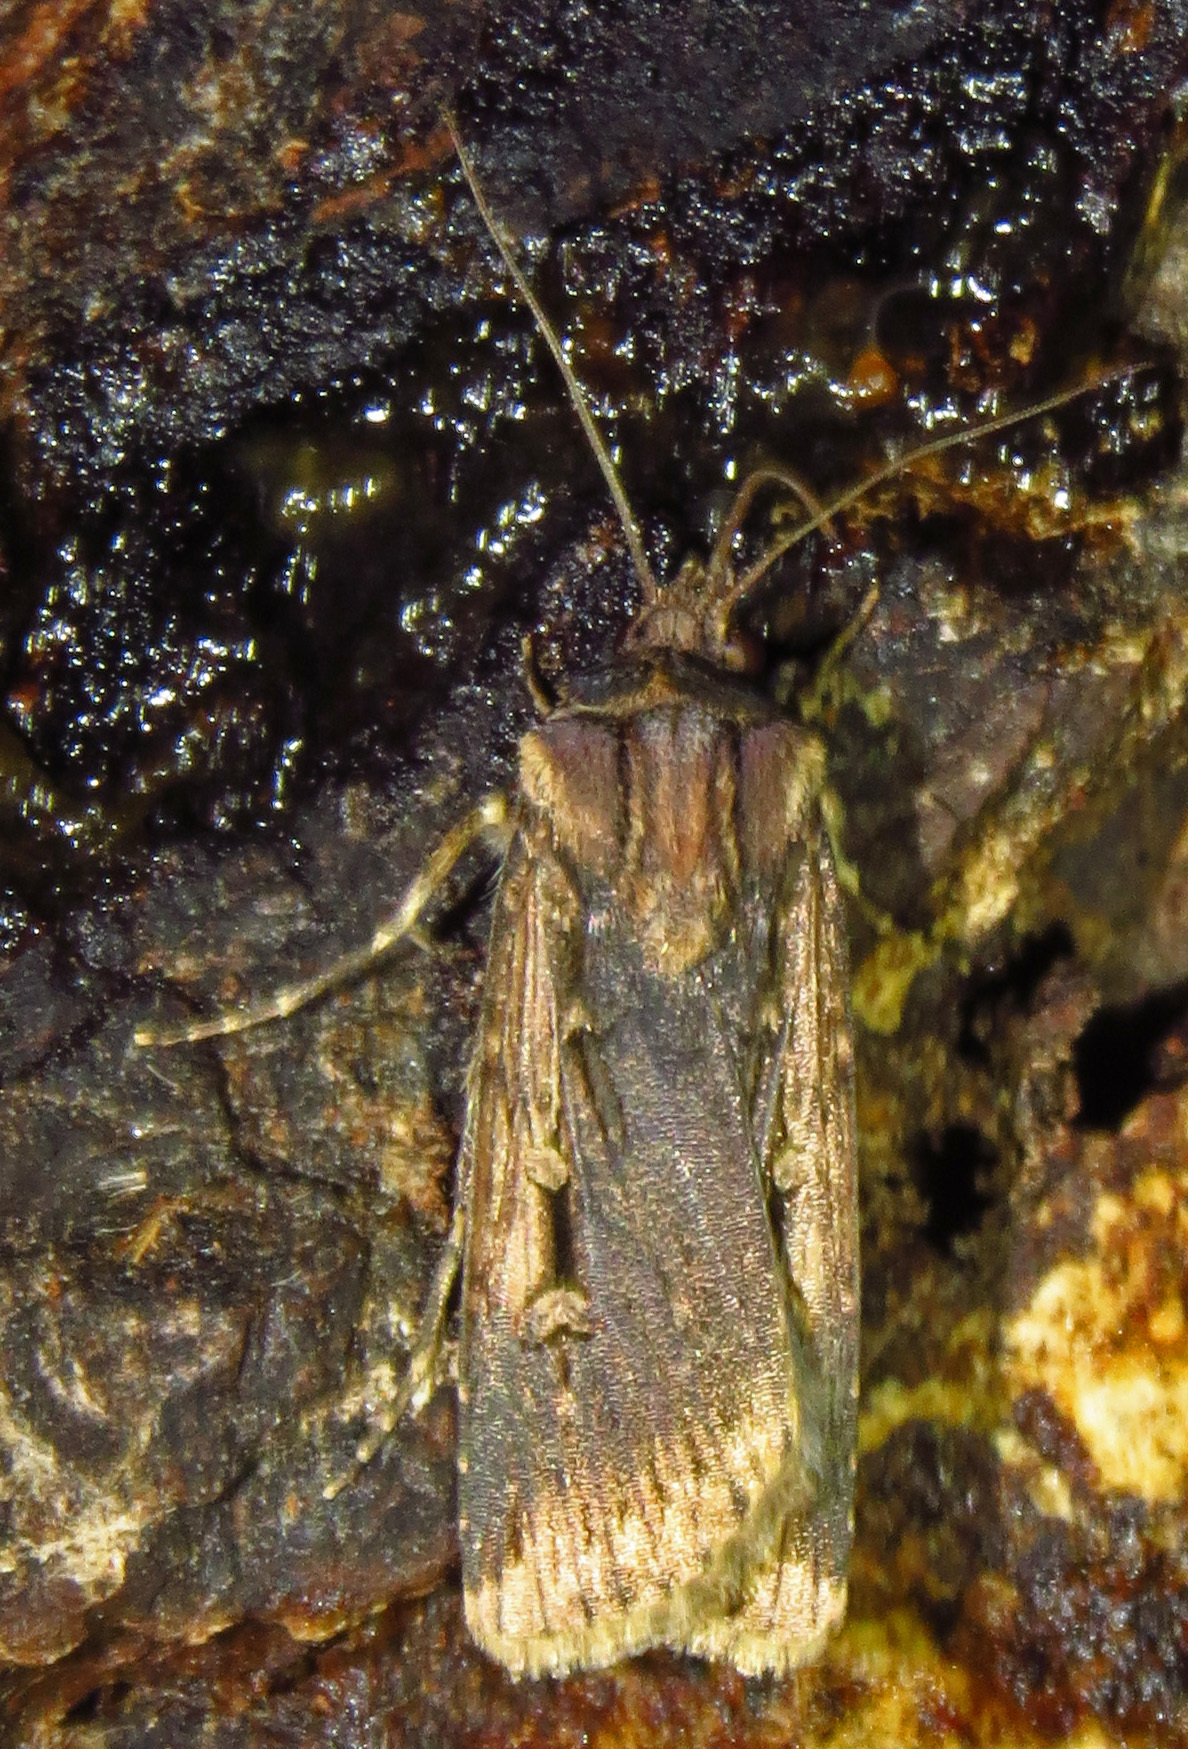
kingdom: Animalia
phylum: Arthropoda
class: Insecta
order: Lepidoptera
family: Noctuidae
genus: Feltia
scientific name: Feltia subterranea
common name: Granulate cutworm
